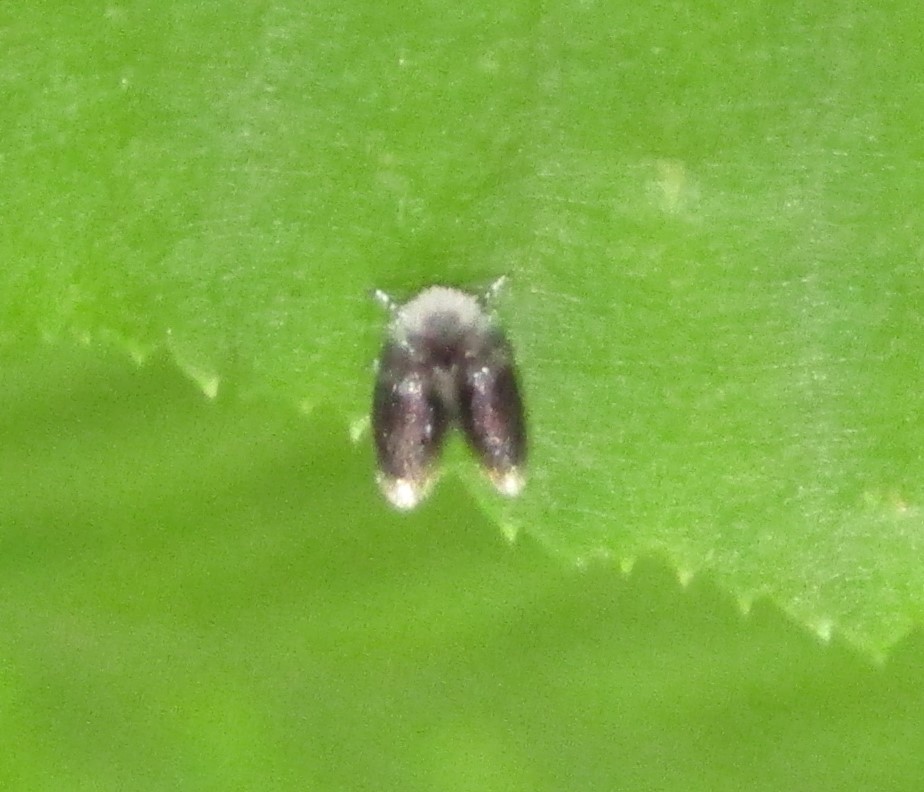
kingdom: Animalia
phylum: Arthropoda
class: Insecta
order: Diptera
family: Psychodidae
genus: Setomima
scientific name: Setomima
